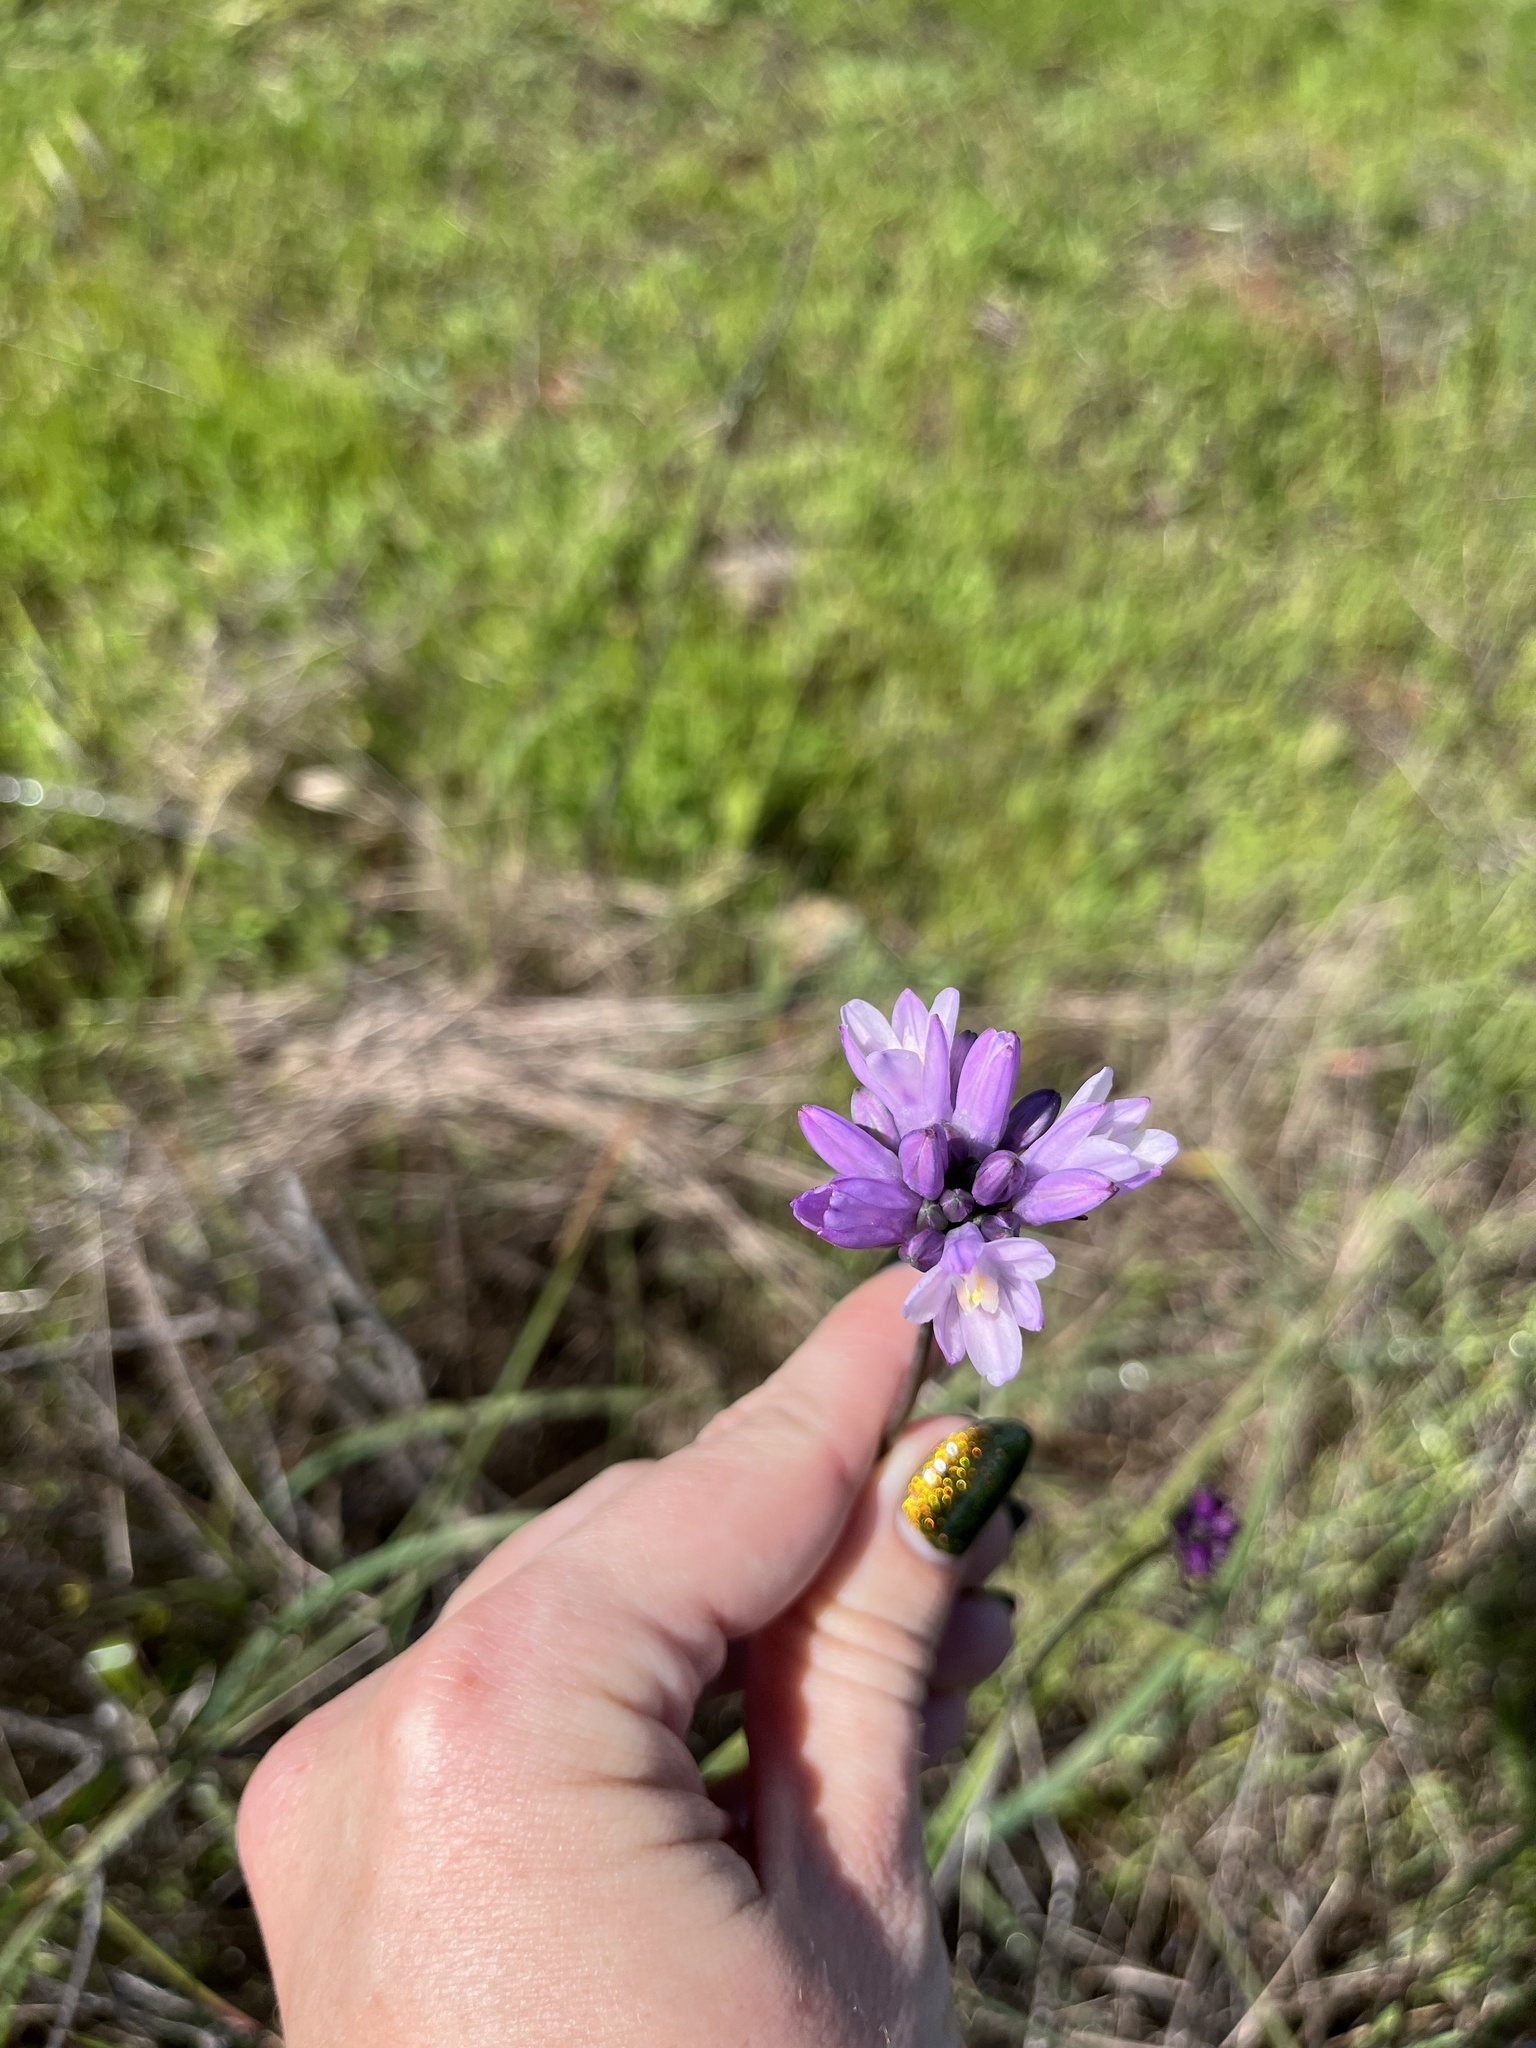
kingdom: Plantae
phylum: Tracheophyta
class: Liliopsida
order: Asparagales
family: Asparagaceae
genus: Dipterostemon
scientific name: Dipterostemon capitatus
